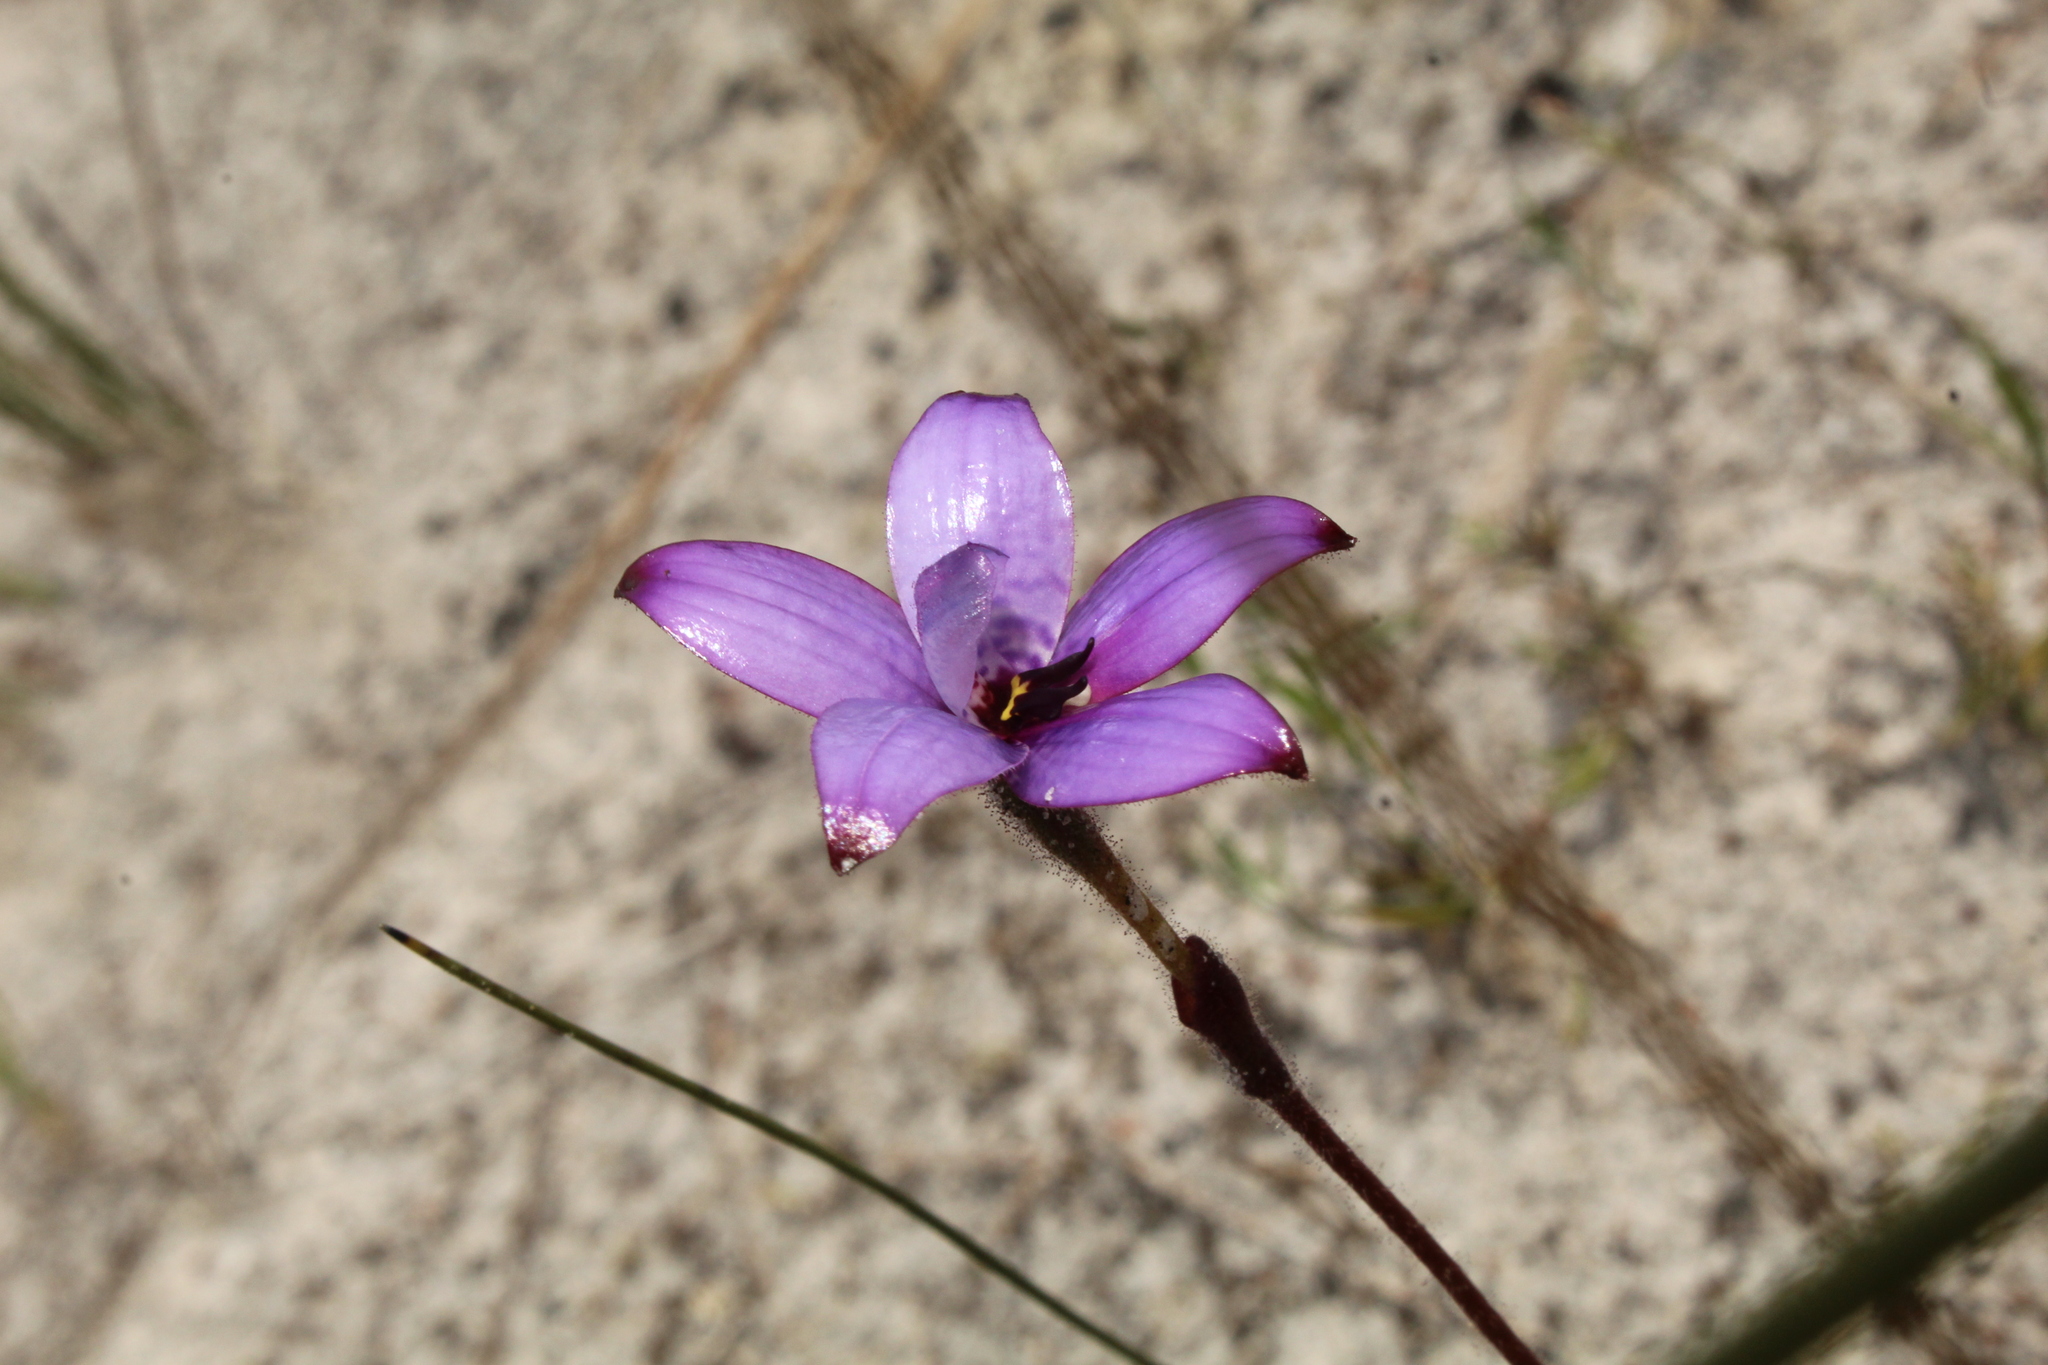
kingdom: Plantae
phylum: Tracheophyta
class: Liliopsida
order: Asparagales
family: Orchidaceae
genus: Caladenia
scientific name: Caladenia brunonis
